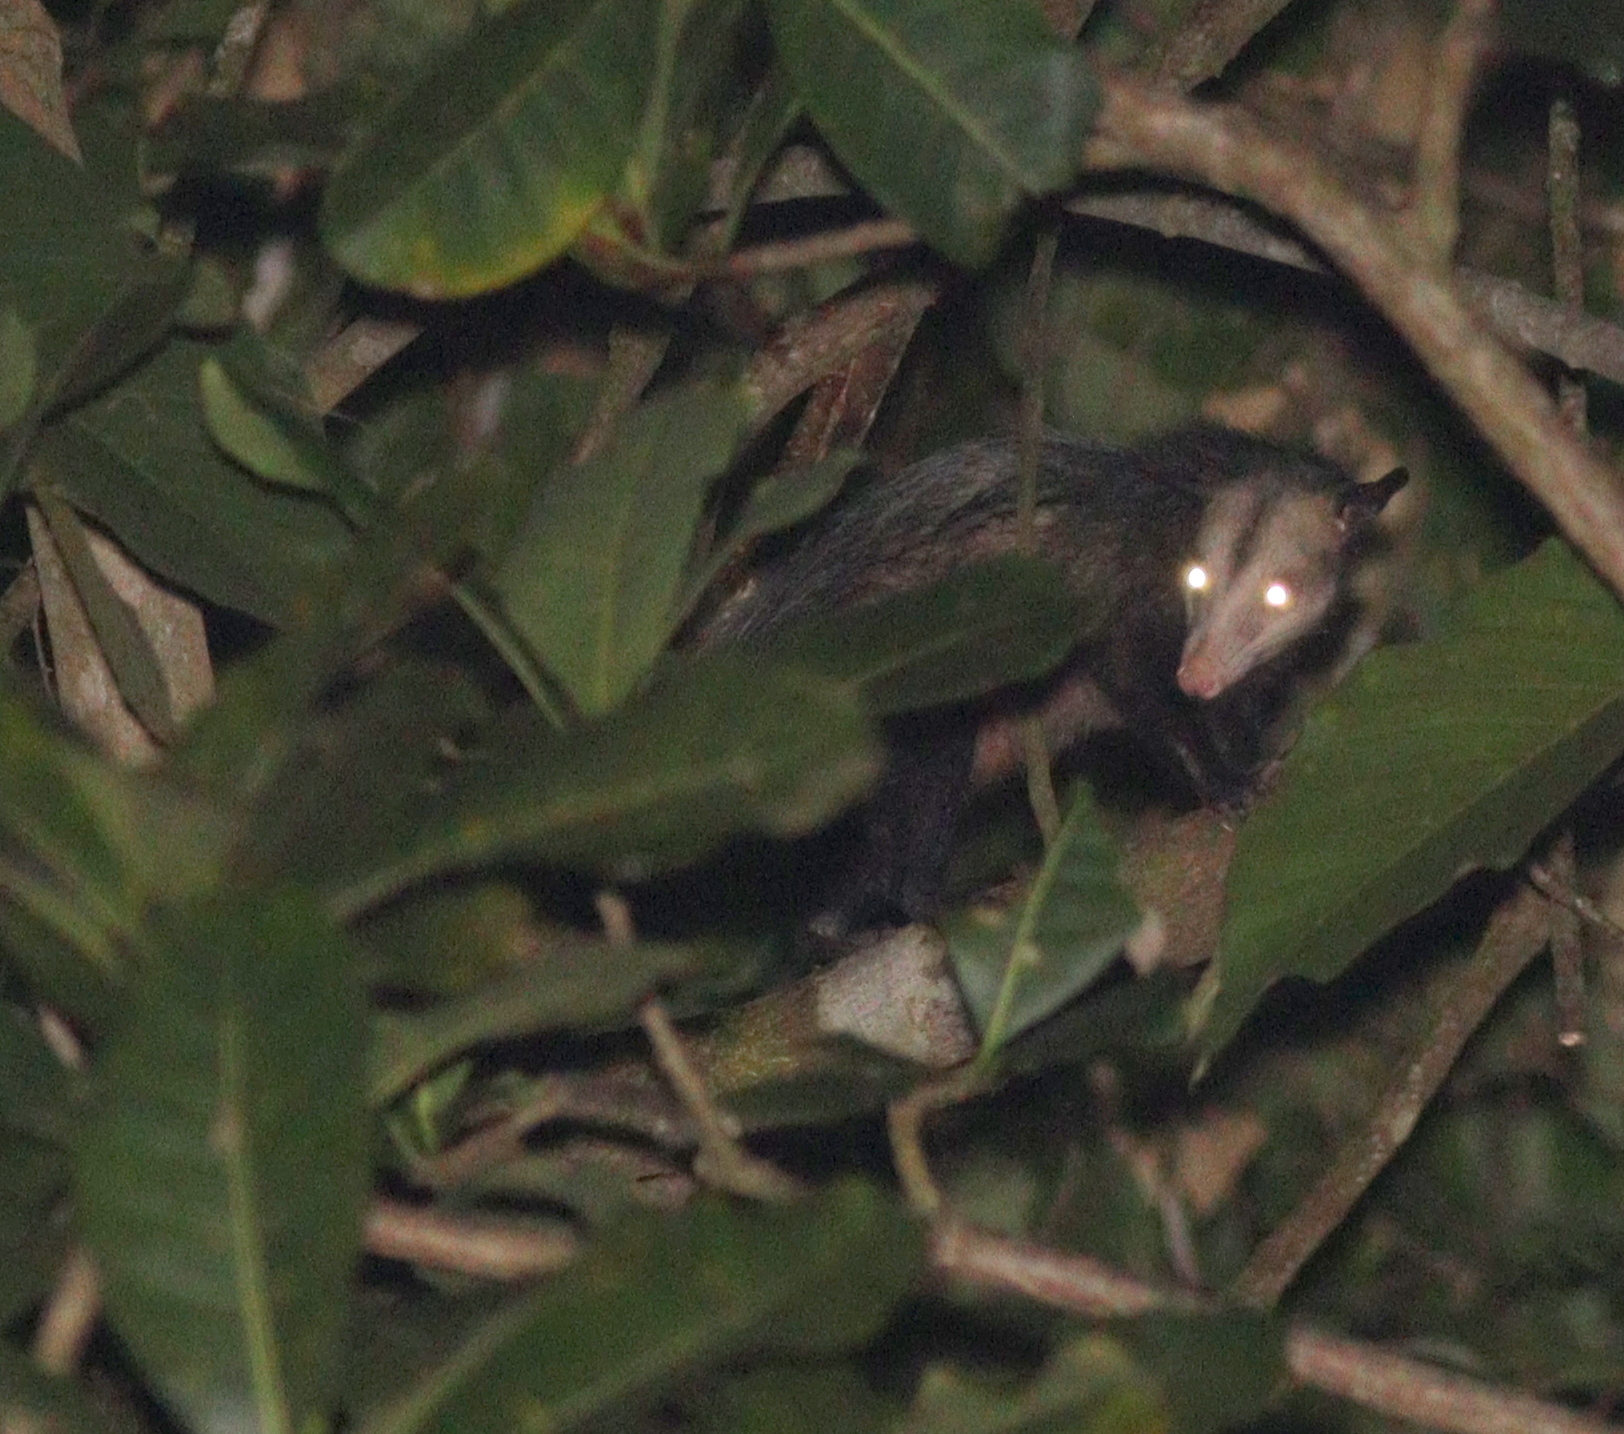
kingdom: Animalia
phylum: Chordata
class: Mammalia
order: Didelphimorphia
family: Didelphidae
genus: Didelphis
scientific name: Didelphis marsupialis
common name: Common opossum
